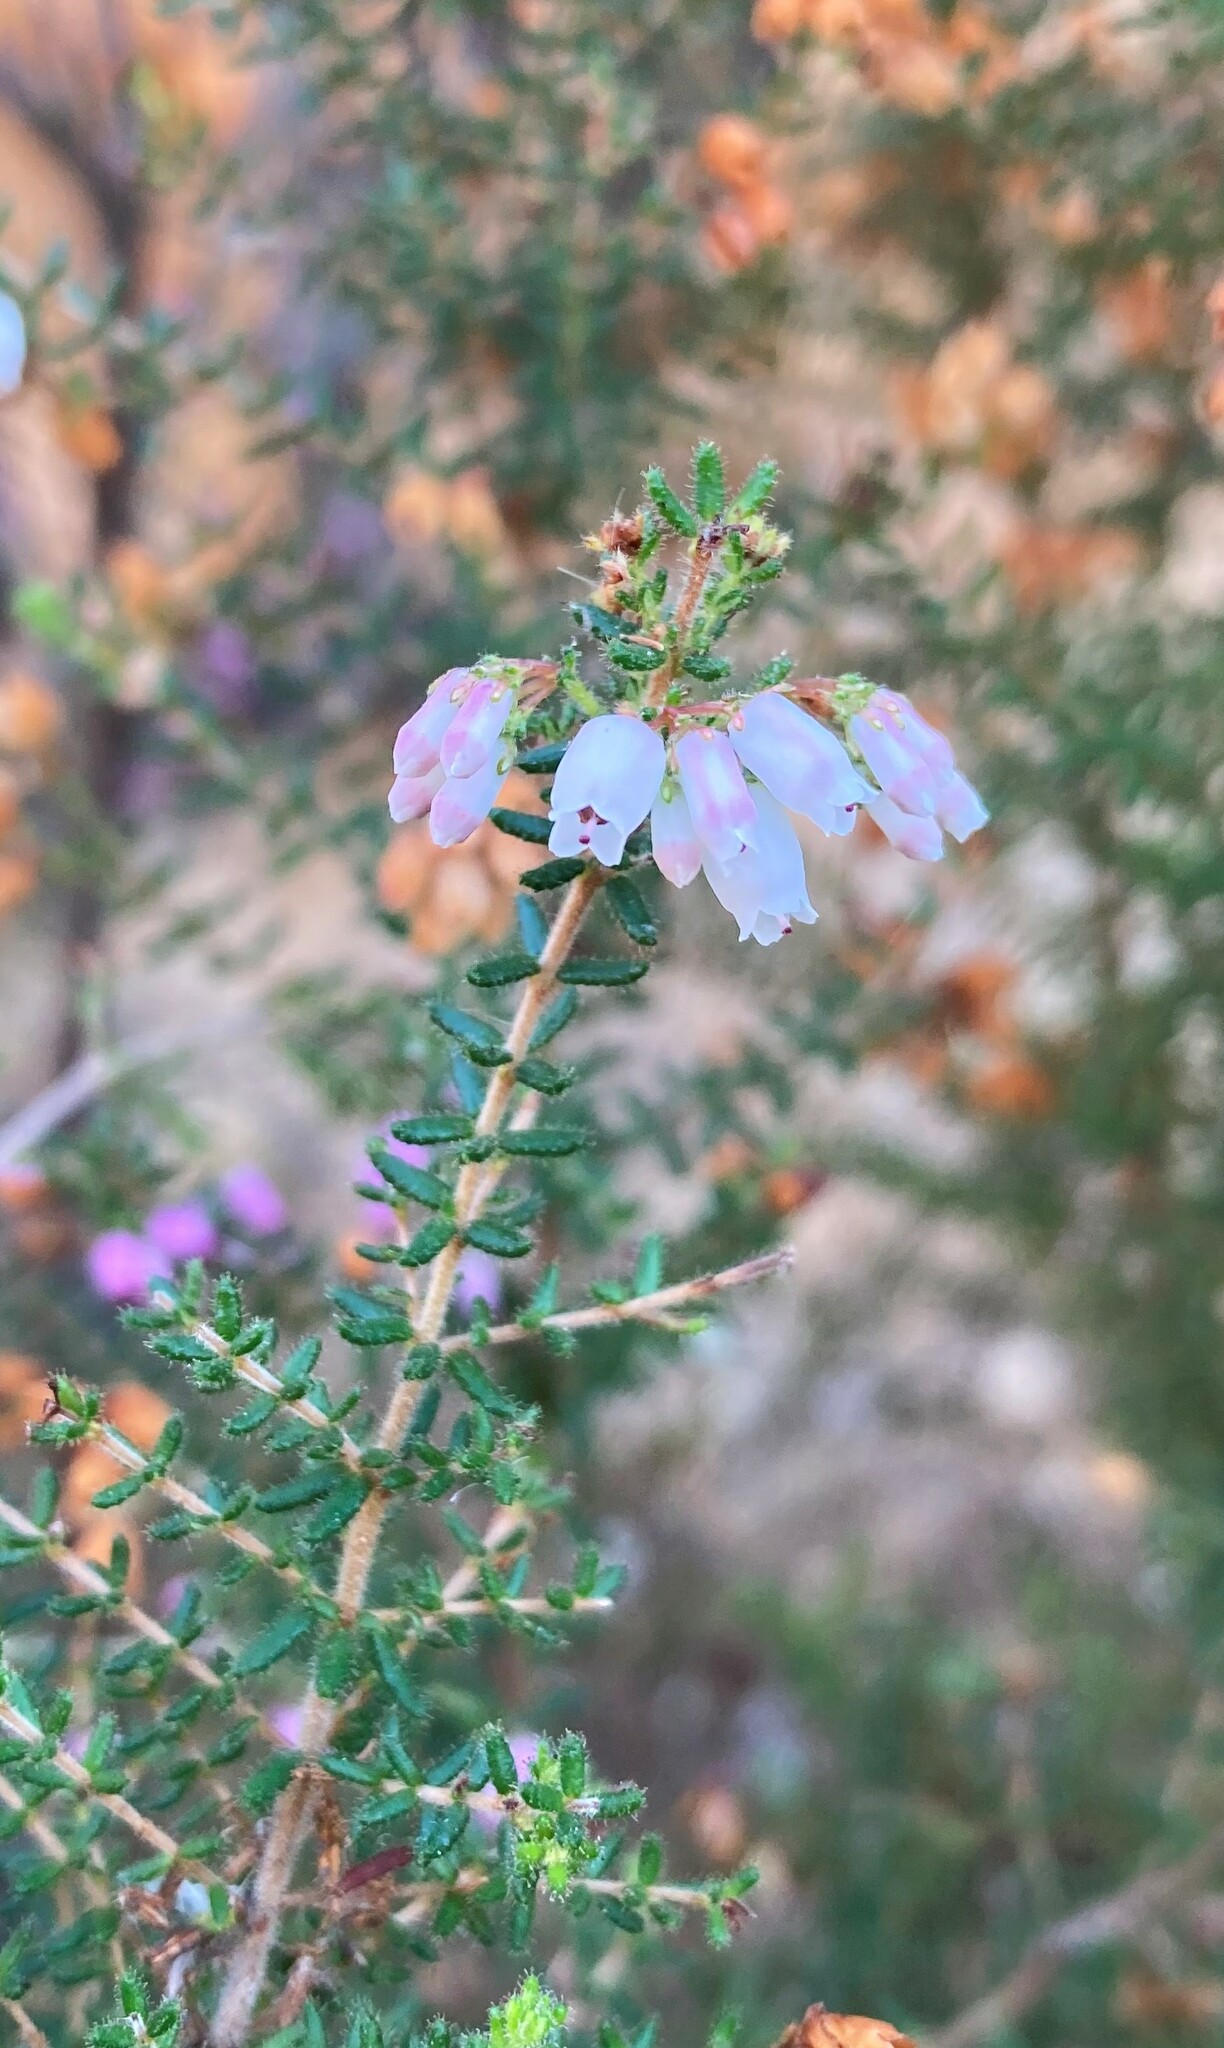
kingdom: Plantae
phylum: Tracheophyta
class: Magnoliopsida
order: Ericales
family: Ericaceae
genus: Erica
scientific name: Erica scabriuscula
